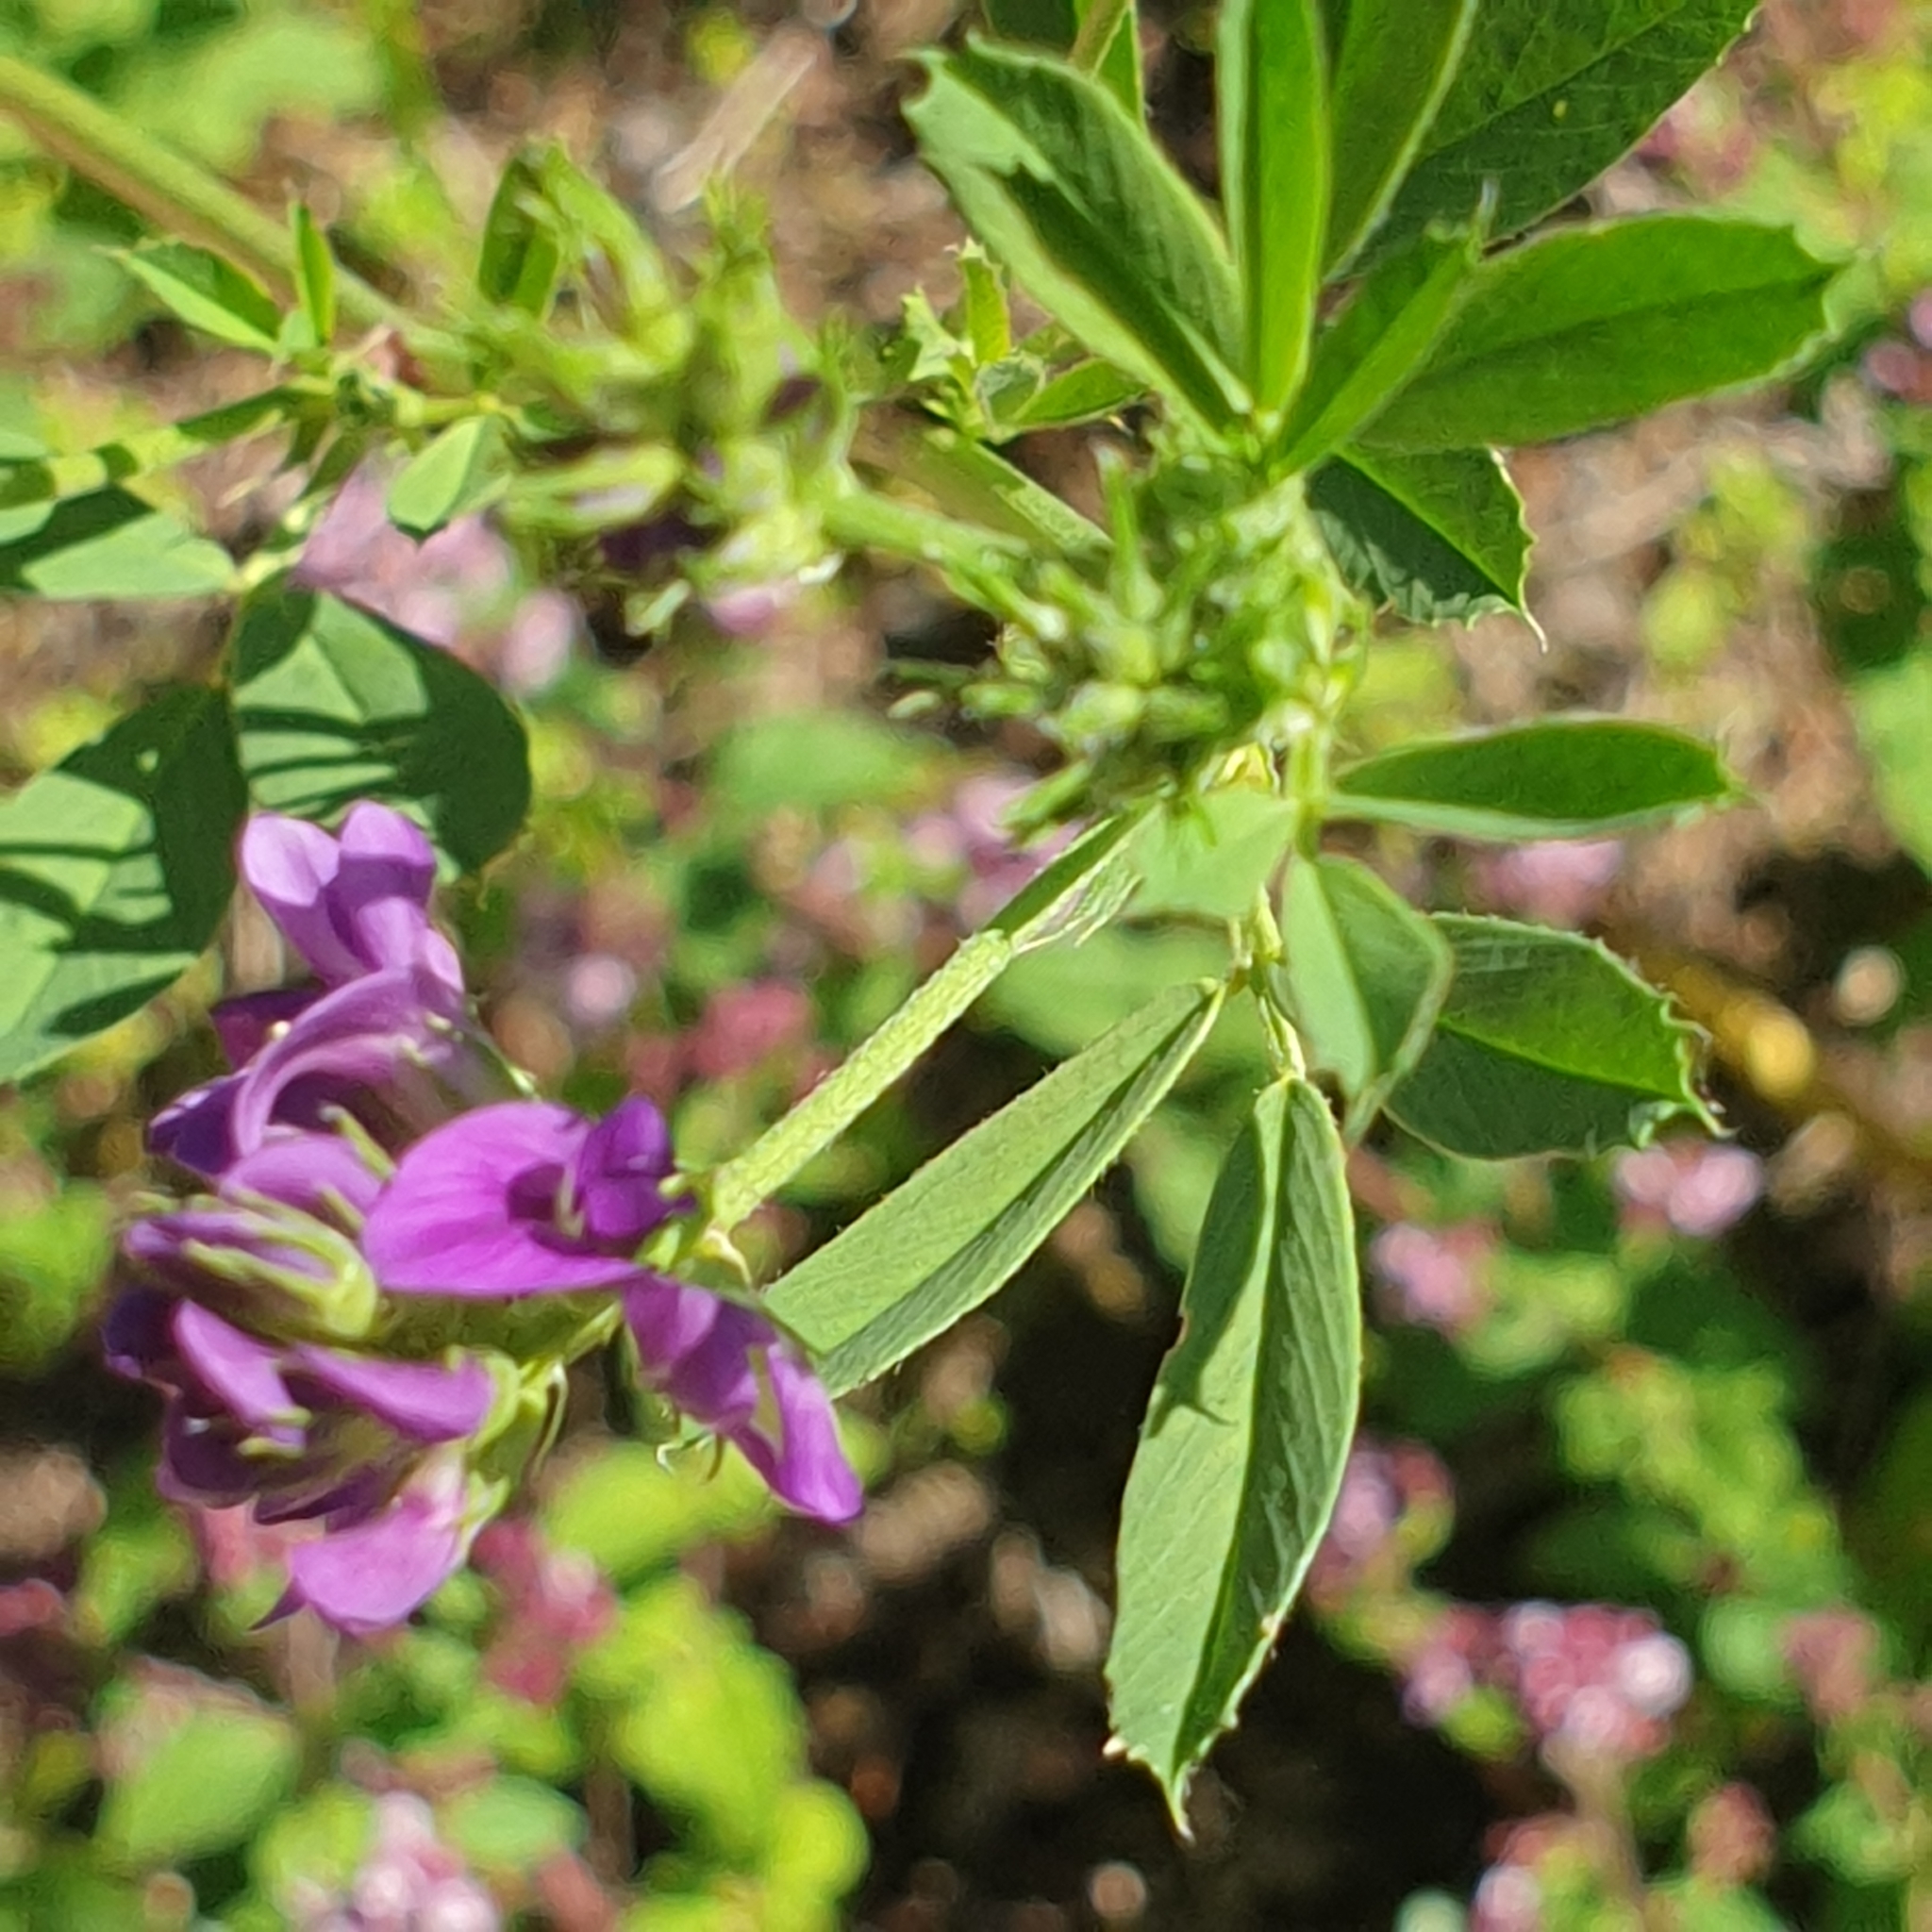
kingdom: Plantae
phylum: Tracheophyta
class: Magnoliopsida
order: Fabales
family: Fabaceae
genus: Medicago
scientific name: Medicago sativa
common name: Alfalfa
